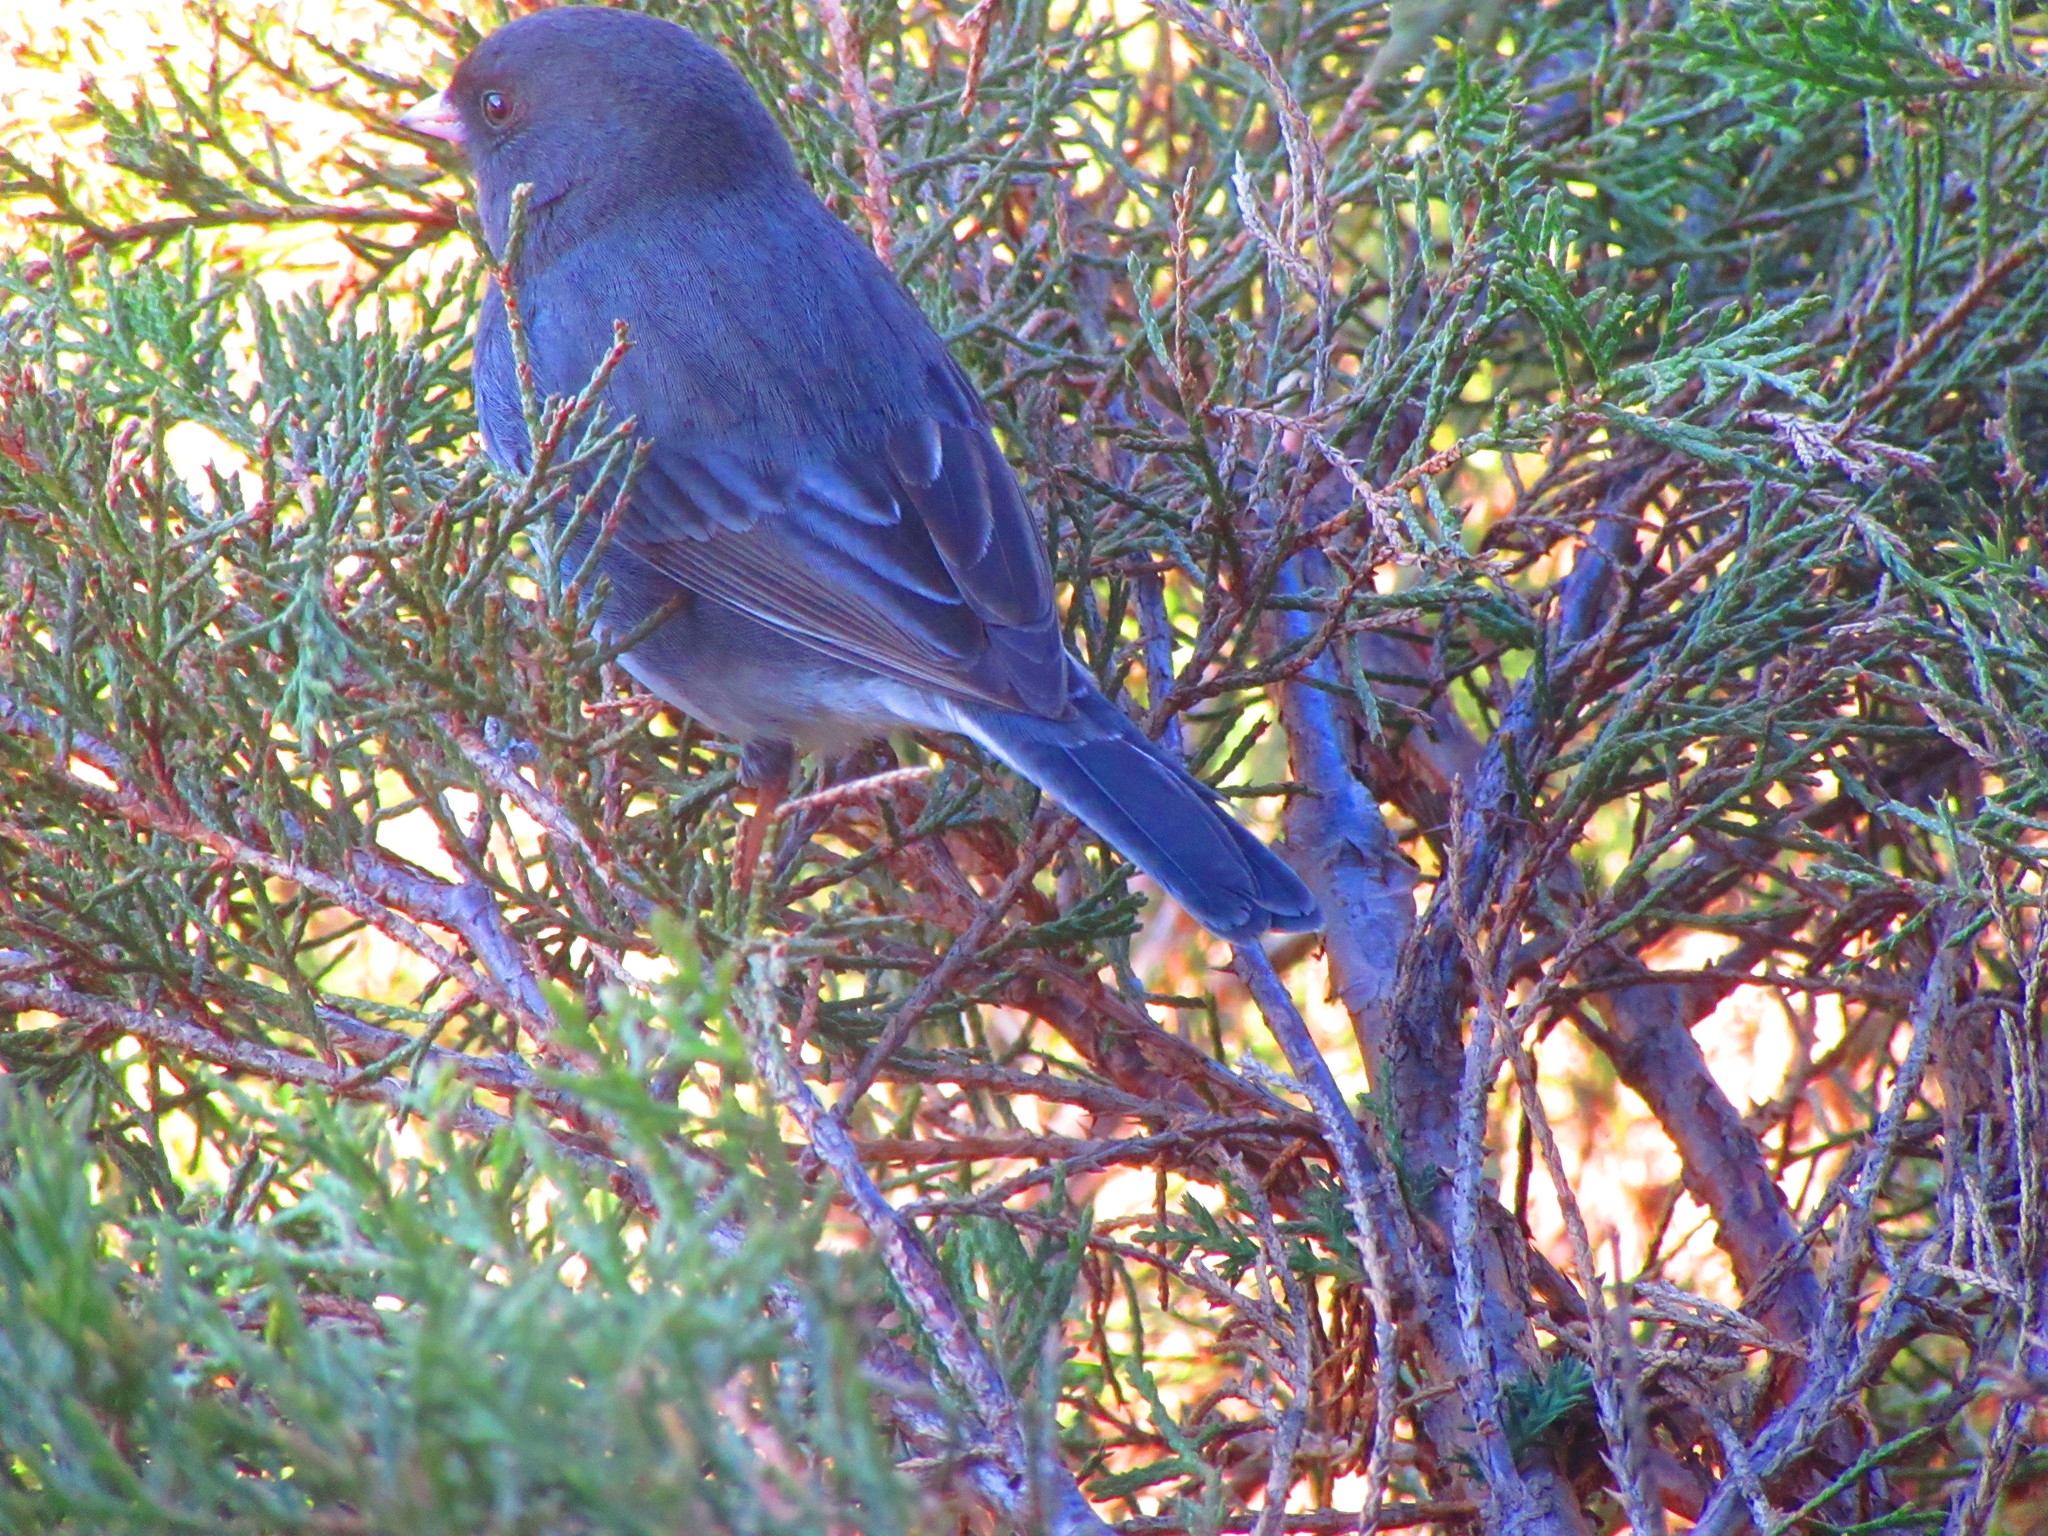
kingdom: Animalia
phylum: Chordata
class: Aves
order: Passeriformes
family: Passerellidae
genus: Junco
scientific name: Junco hyemalis
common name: Dark-eyed junco
